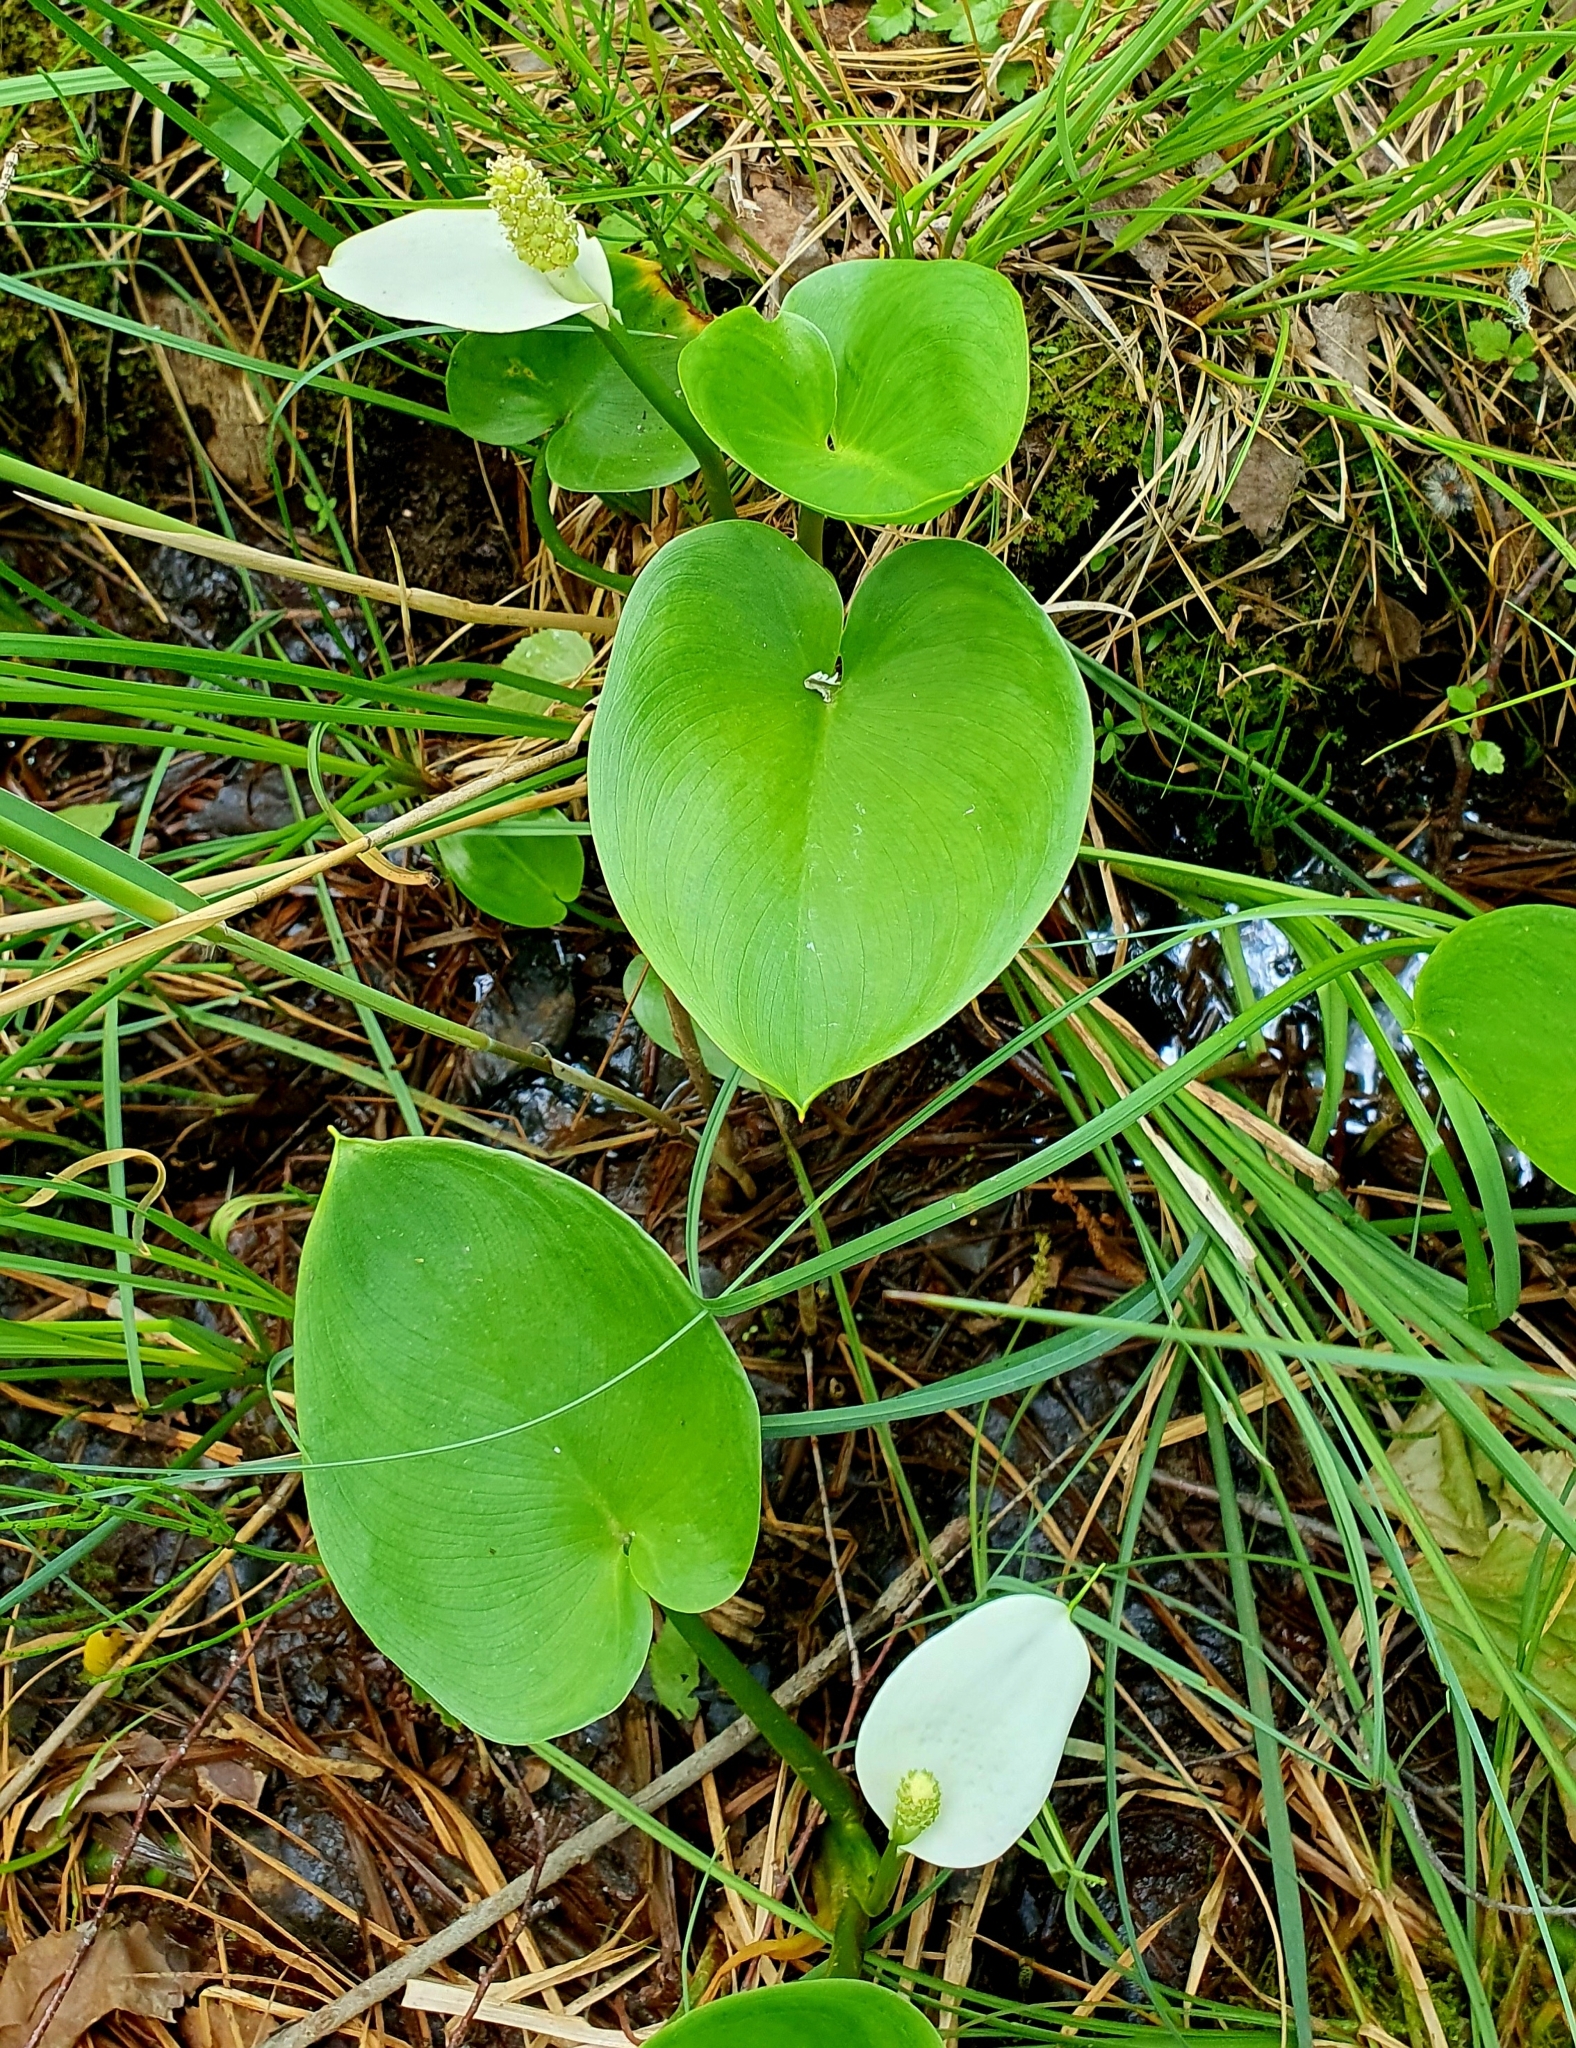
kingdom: Plantae
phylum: Tracheophyta
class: Liliopsida
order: Alismatales
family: Araceae
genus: Calla
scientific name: Calla palustris
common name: Bog arum
